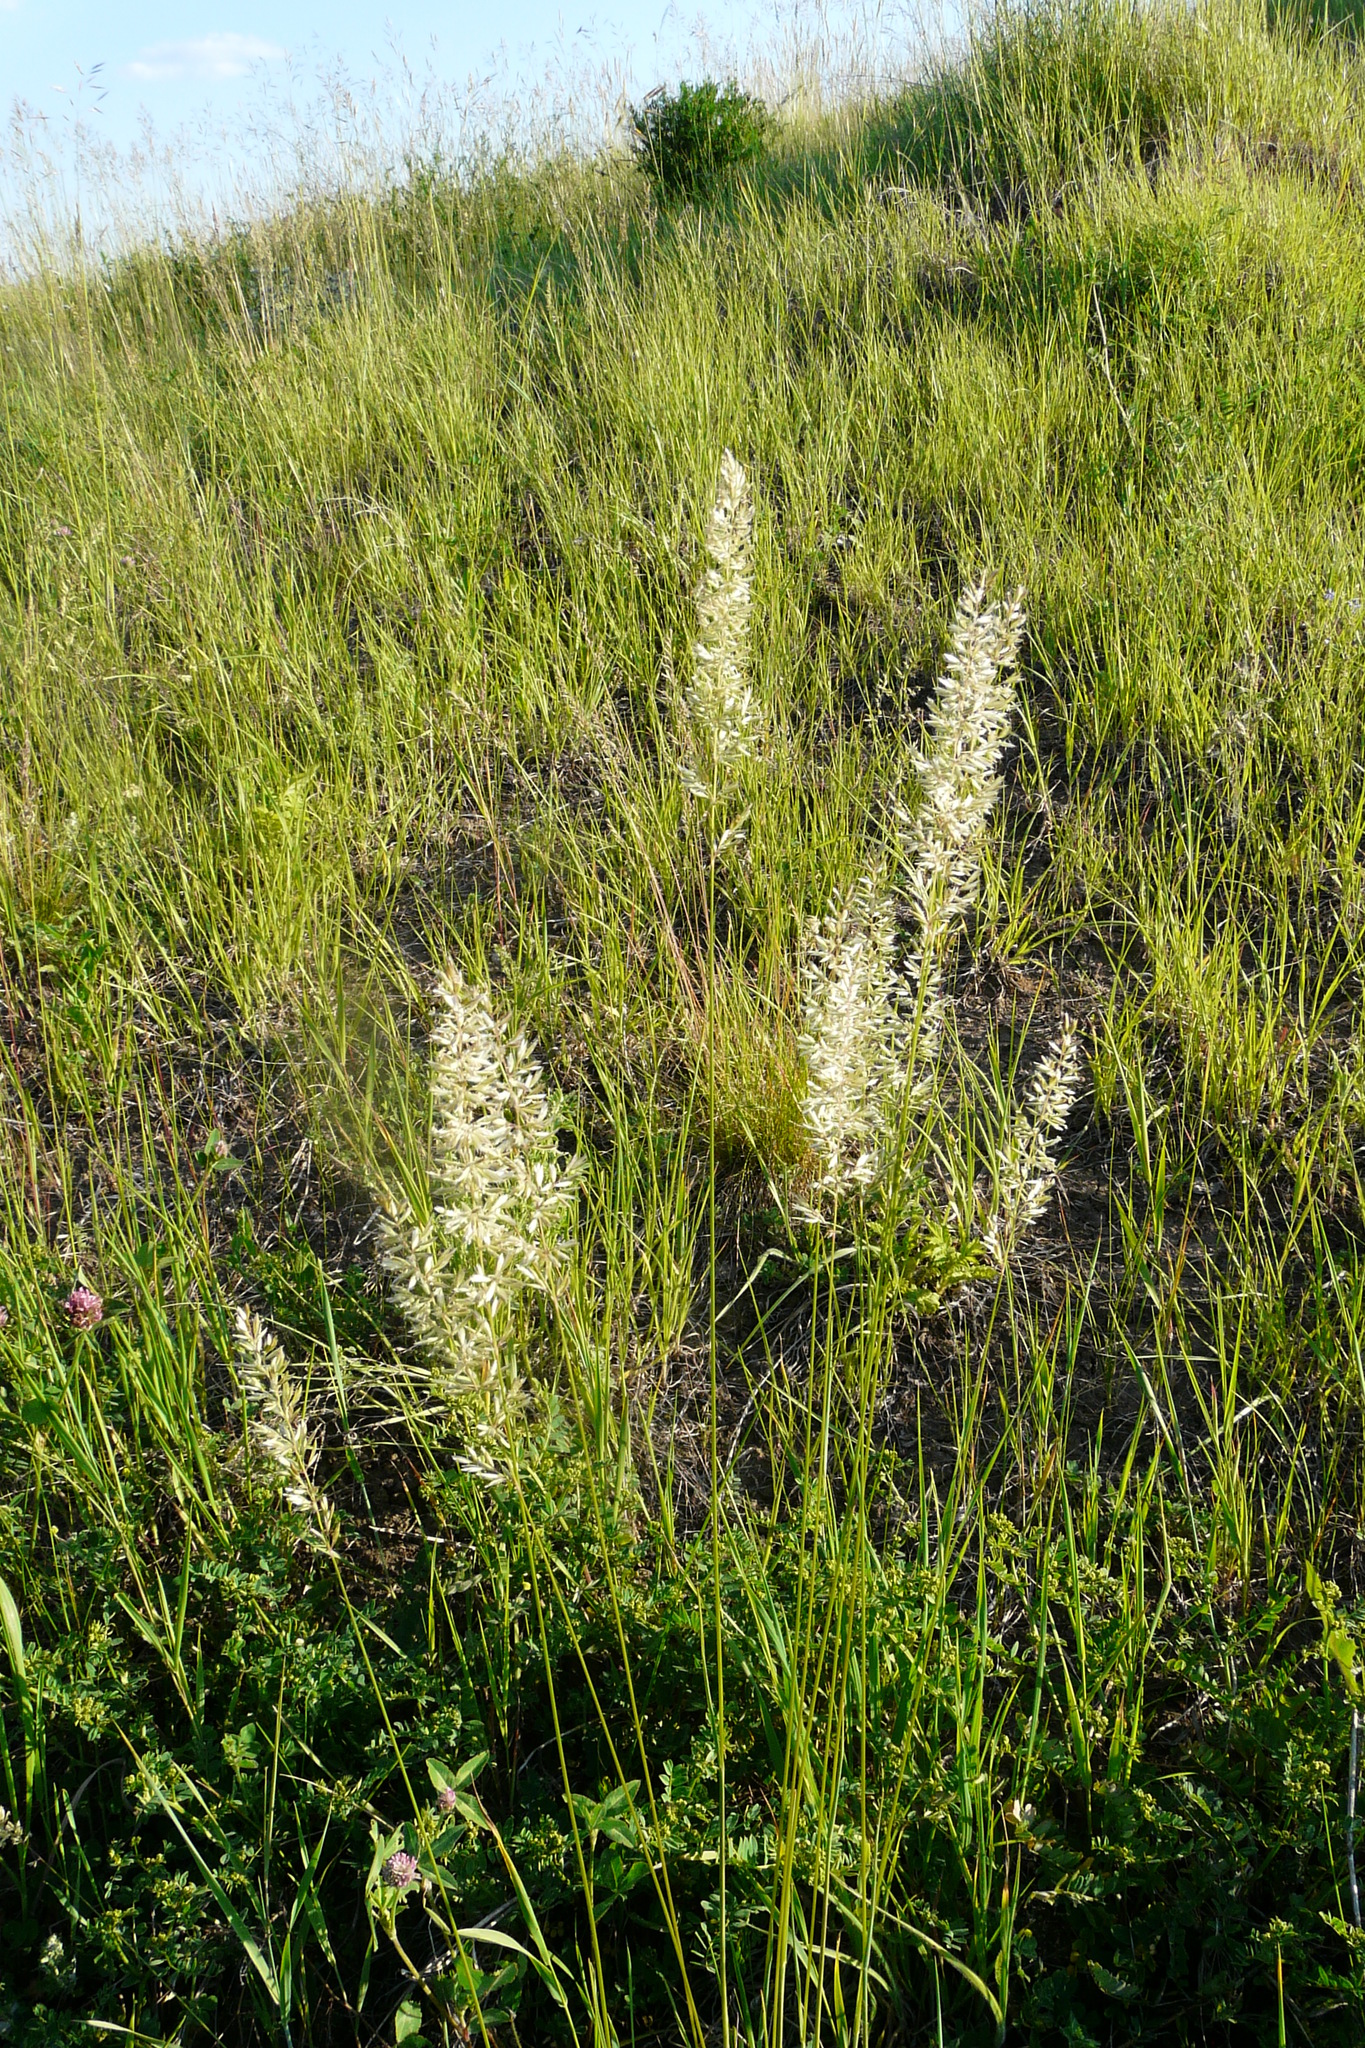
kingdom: Plantae
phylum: Tracheophyta
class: Liliopsida
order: Poales
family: Poaceae
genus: Koeleria
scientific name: Koeleria macrantha
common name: Crested hair-grass
